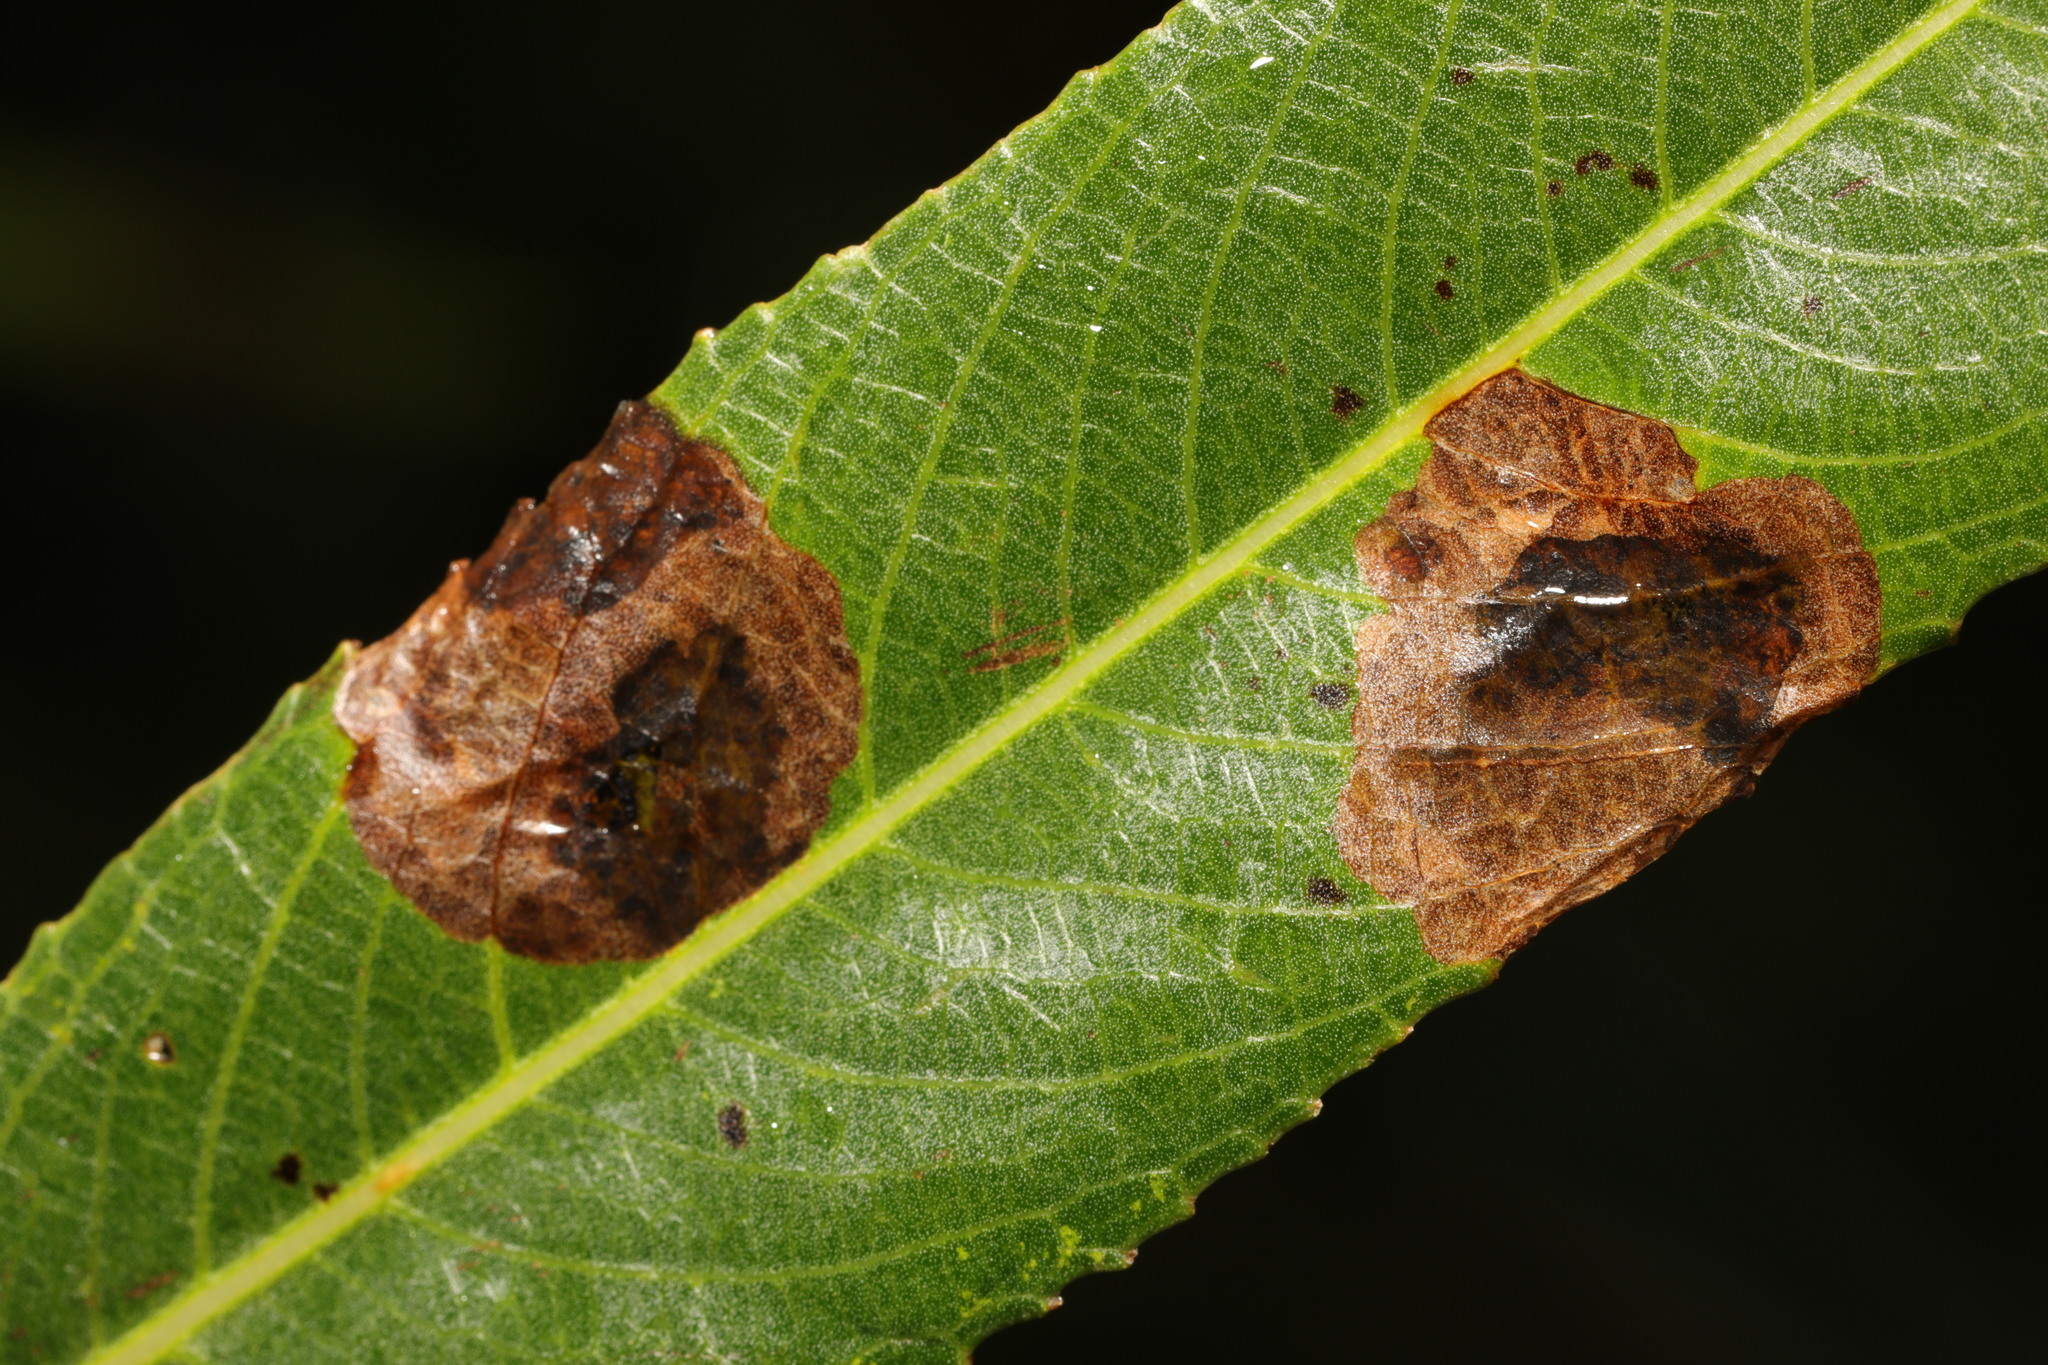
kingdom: Animalia
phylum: Arthropoda
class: Insecta
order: Coleoptera
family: Curculionidae
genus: Isochnus
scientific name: Isochnus sequensi
